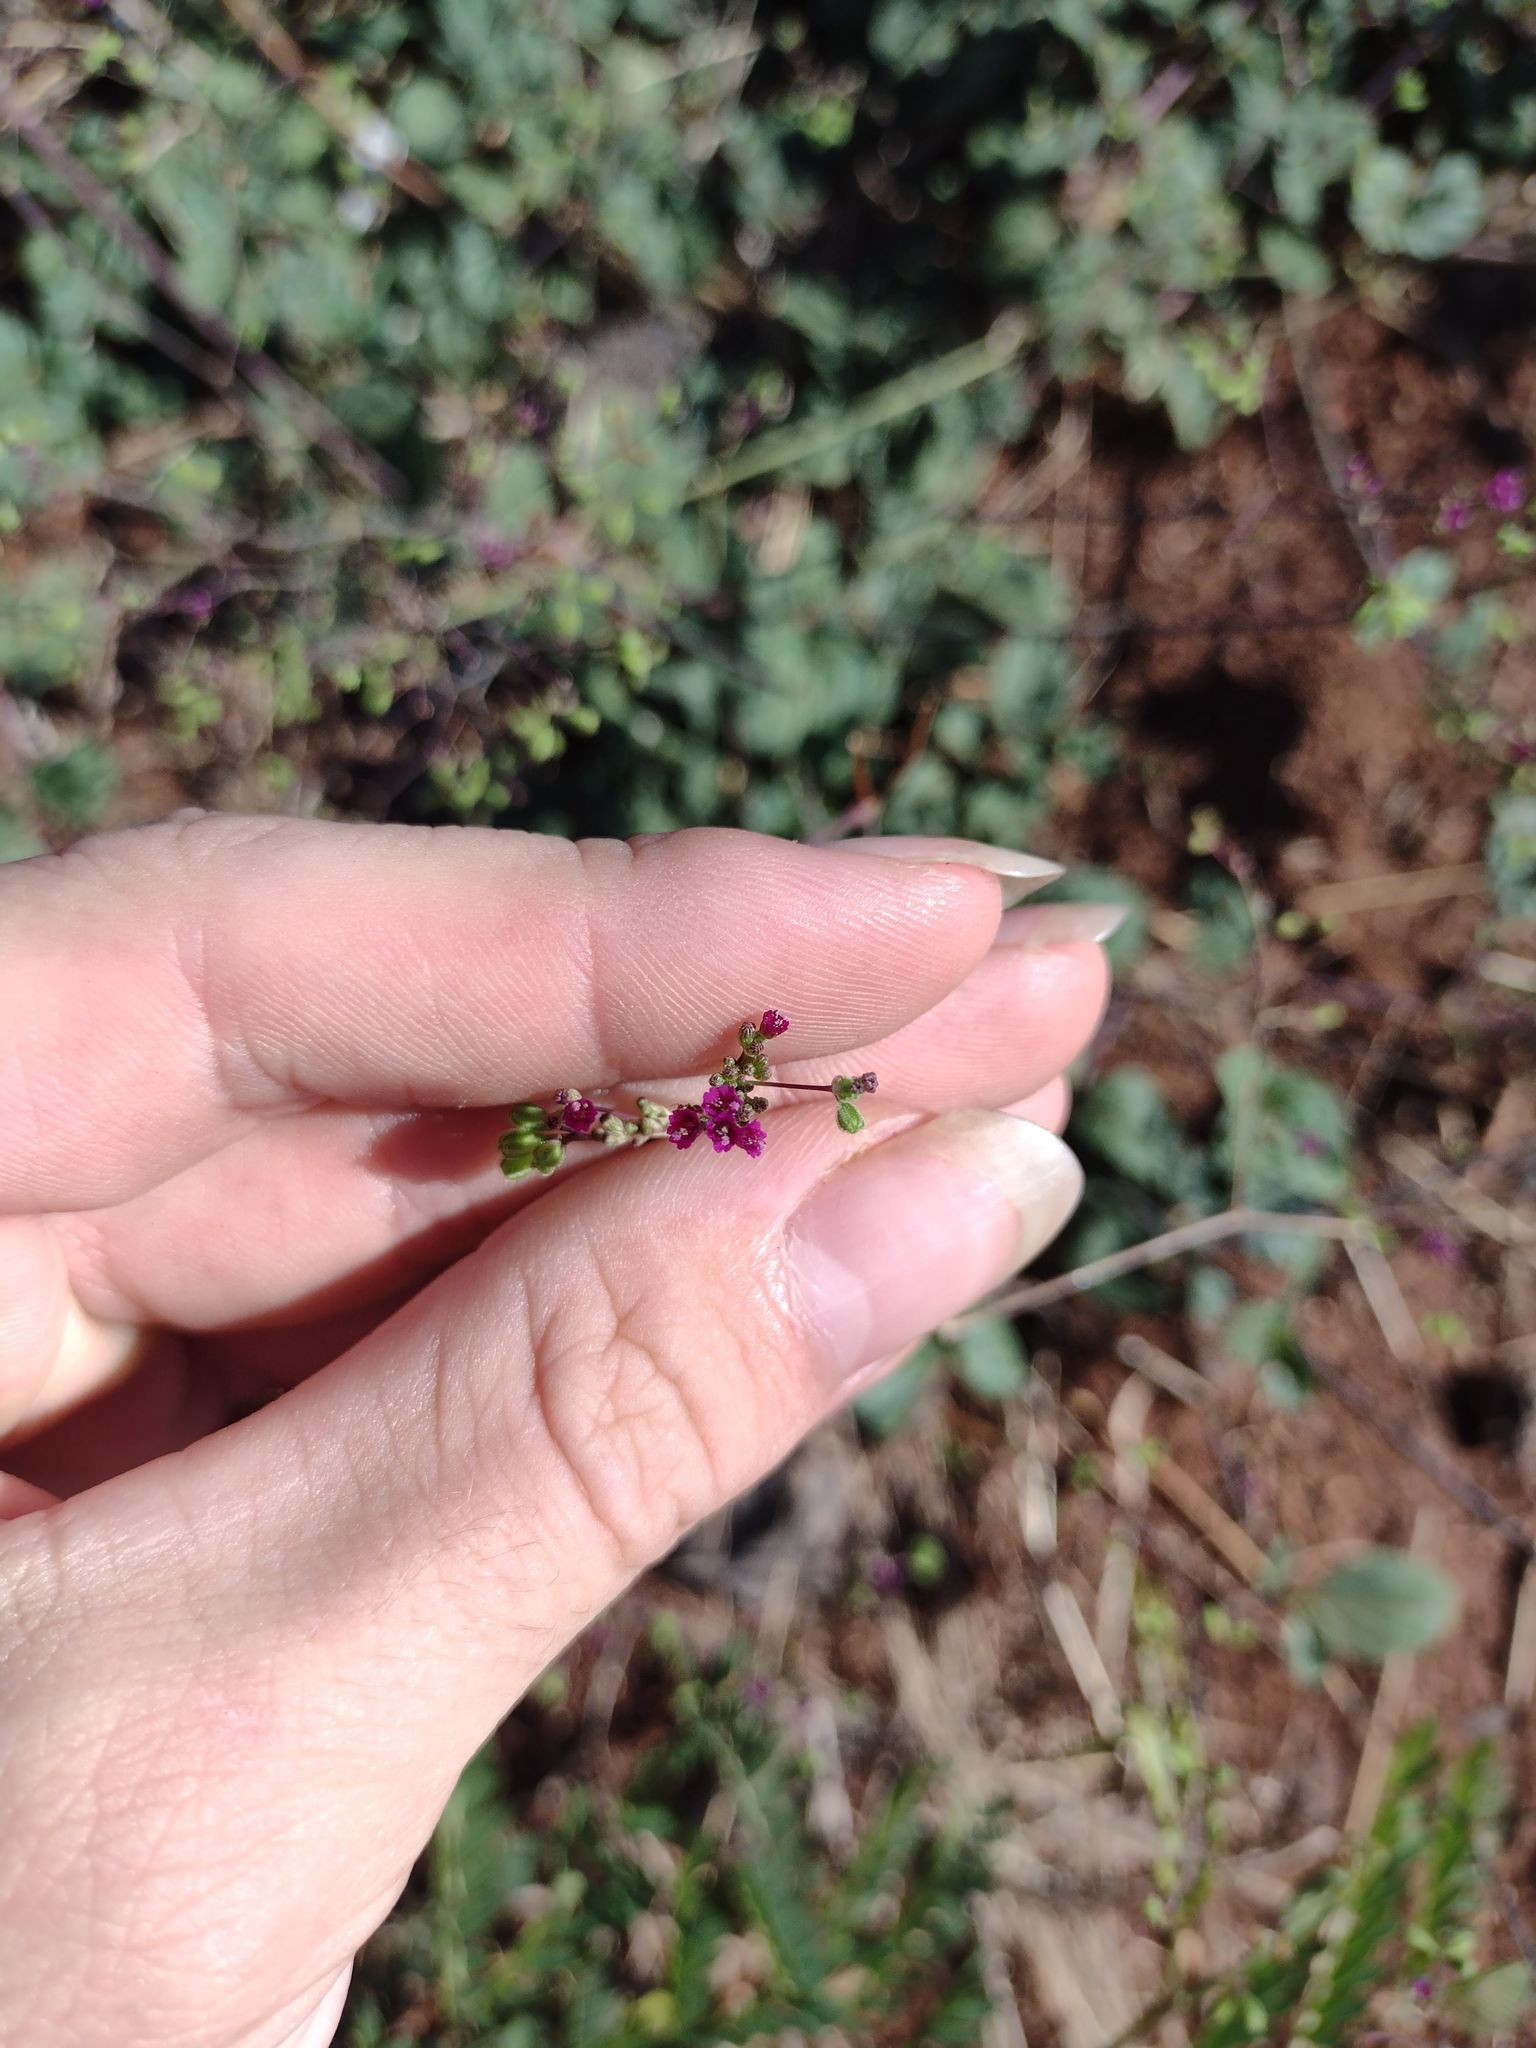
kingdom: Plantae
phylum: Tracheophyta
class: Magnoliopsida
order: Caryophyllales
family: Nyctaginaceae
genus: Boerhavia
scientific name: Boerhavia diffusa
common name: Red spiderling
